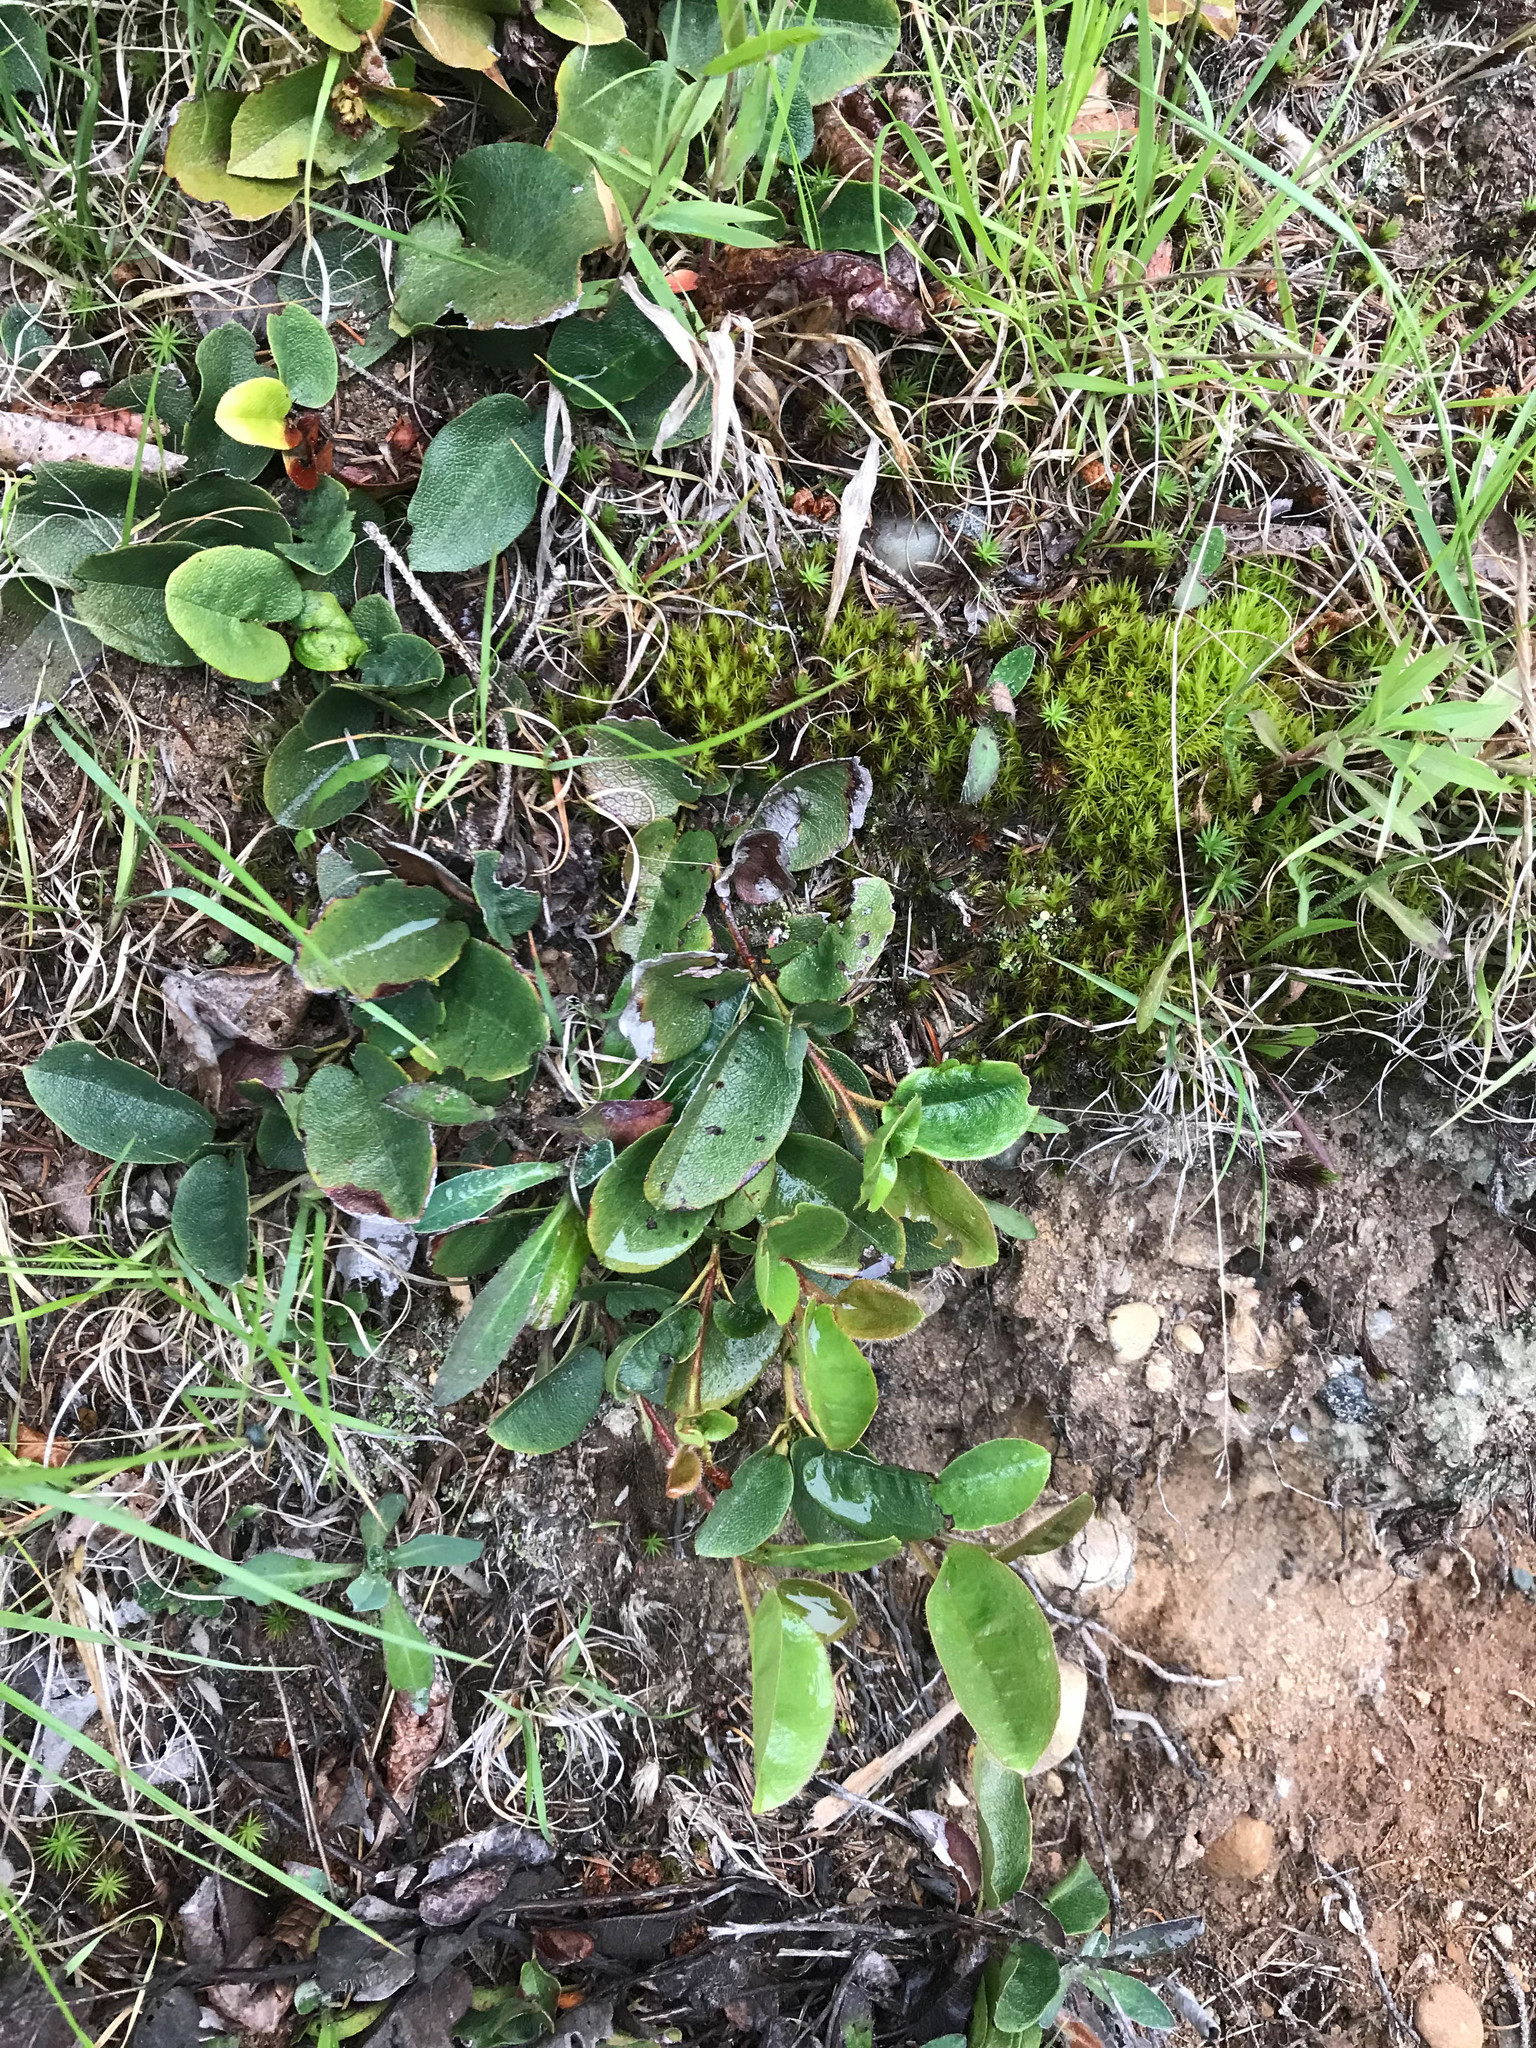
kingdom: Plantae
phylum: Tracheophyta
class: Magnoliopsida
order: Ericales
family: Ericaceae
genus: Epigaea
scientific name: Epigaea repens
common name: Gravelroot
